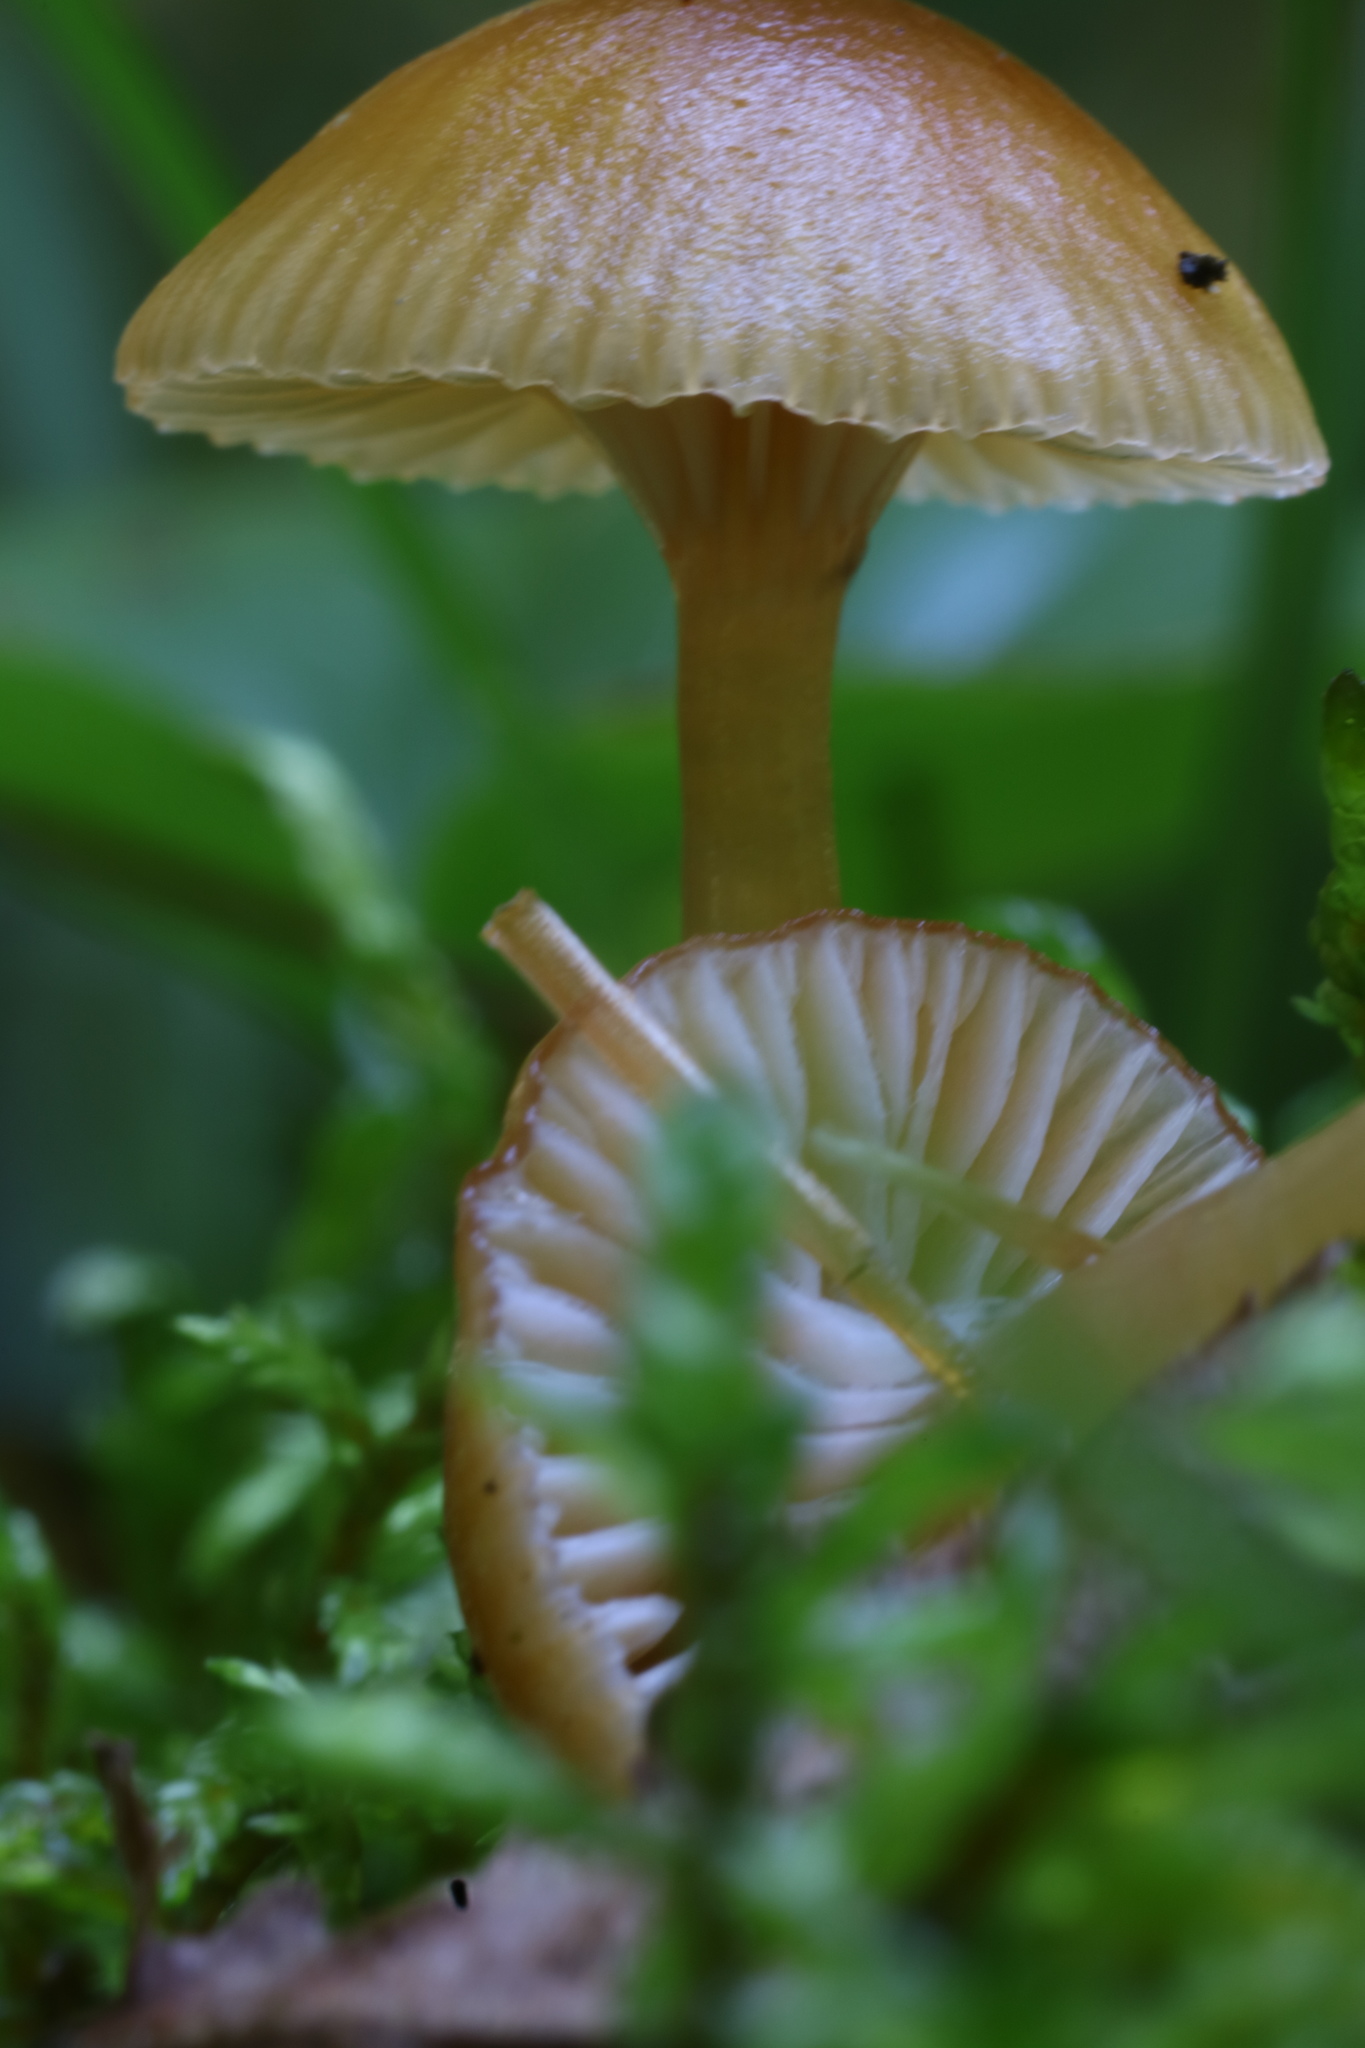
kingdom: Fungi
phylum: Basidiomycota
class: Agaricomycetes
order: Agaricales
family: Hygrophoraceae
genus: Gliophorus
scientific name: Gliophorus laetus
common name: Heath waxcap
